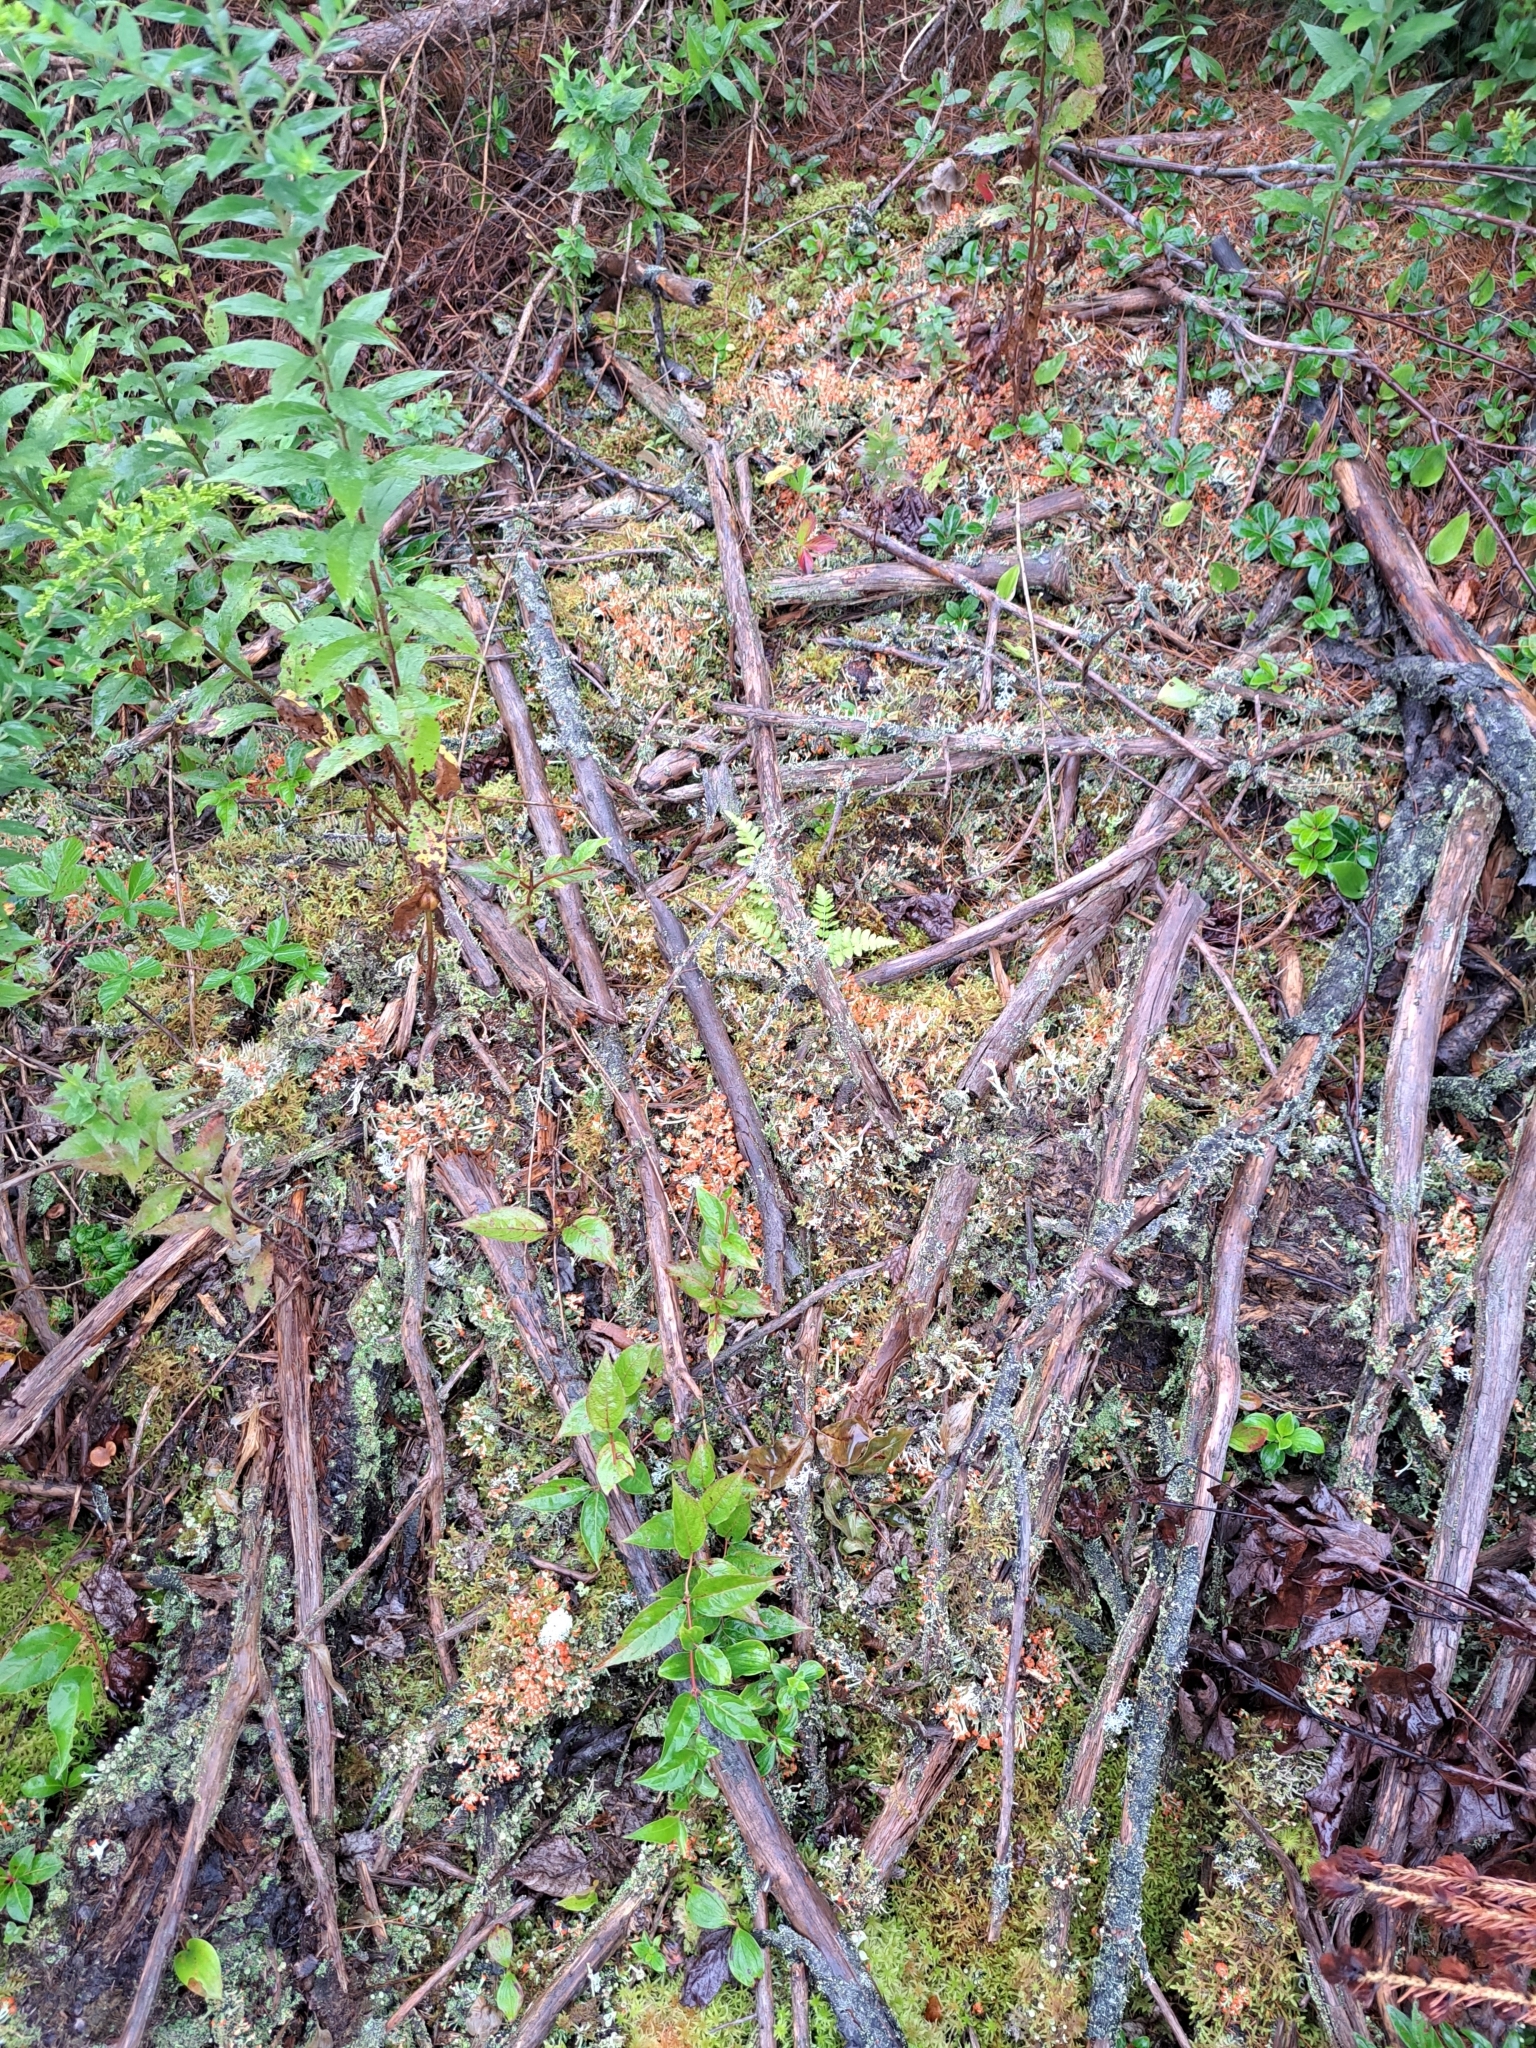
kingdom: Fungi
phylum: Ascomycota
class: Lecanoromycetes
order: Lecanorales
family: Cladoniaceae
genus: Cladonia
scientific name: Cladonia cristatella
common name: British soldier lichen
